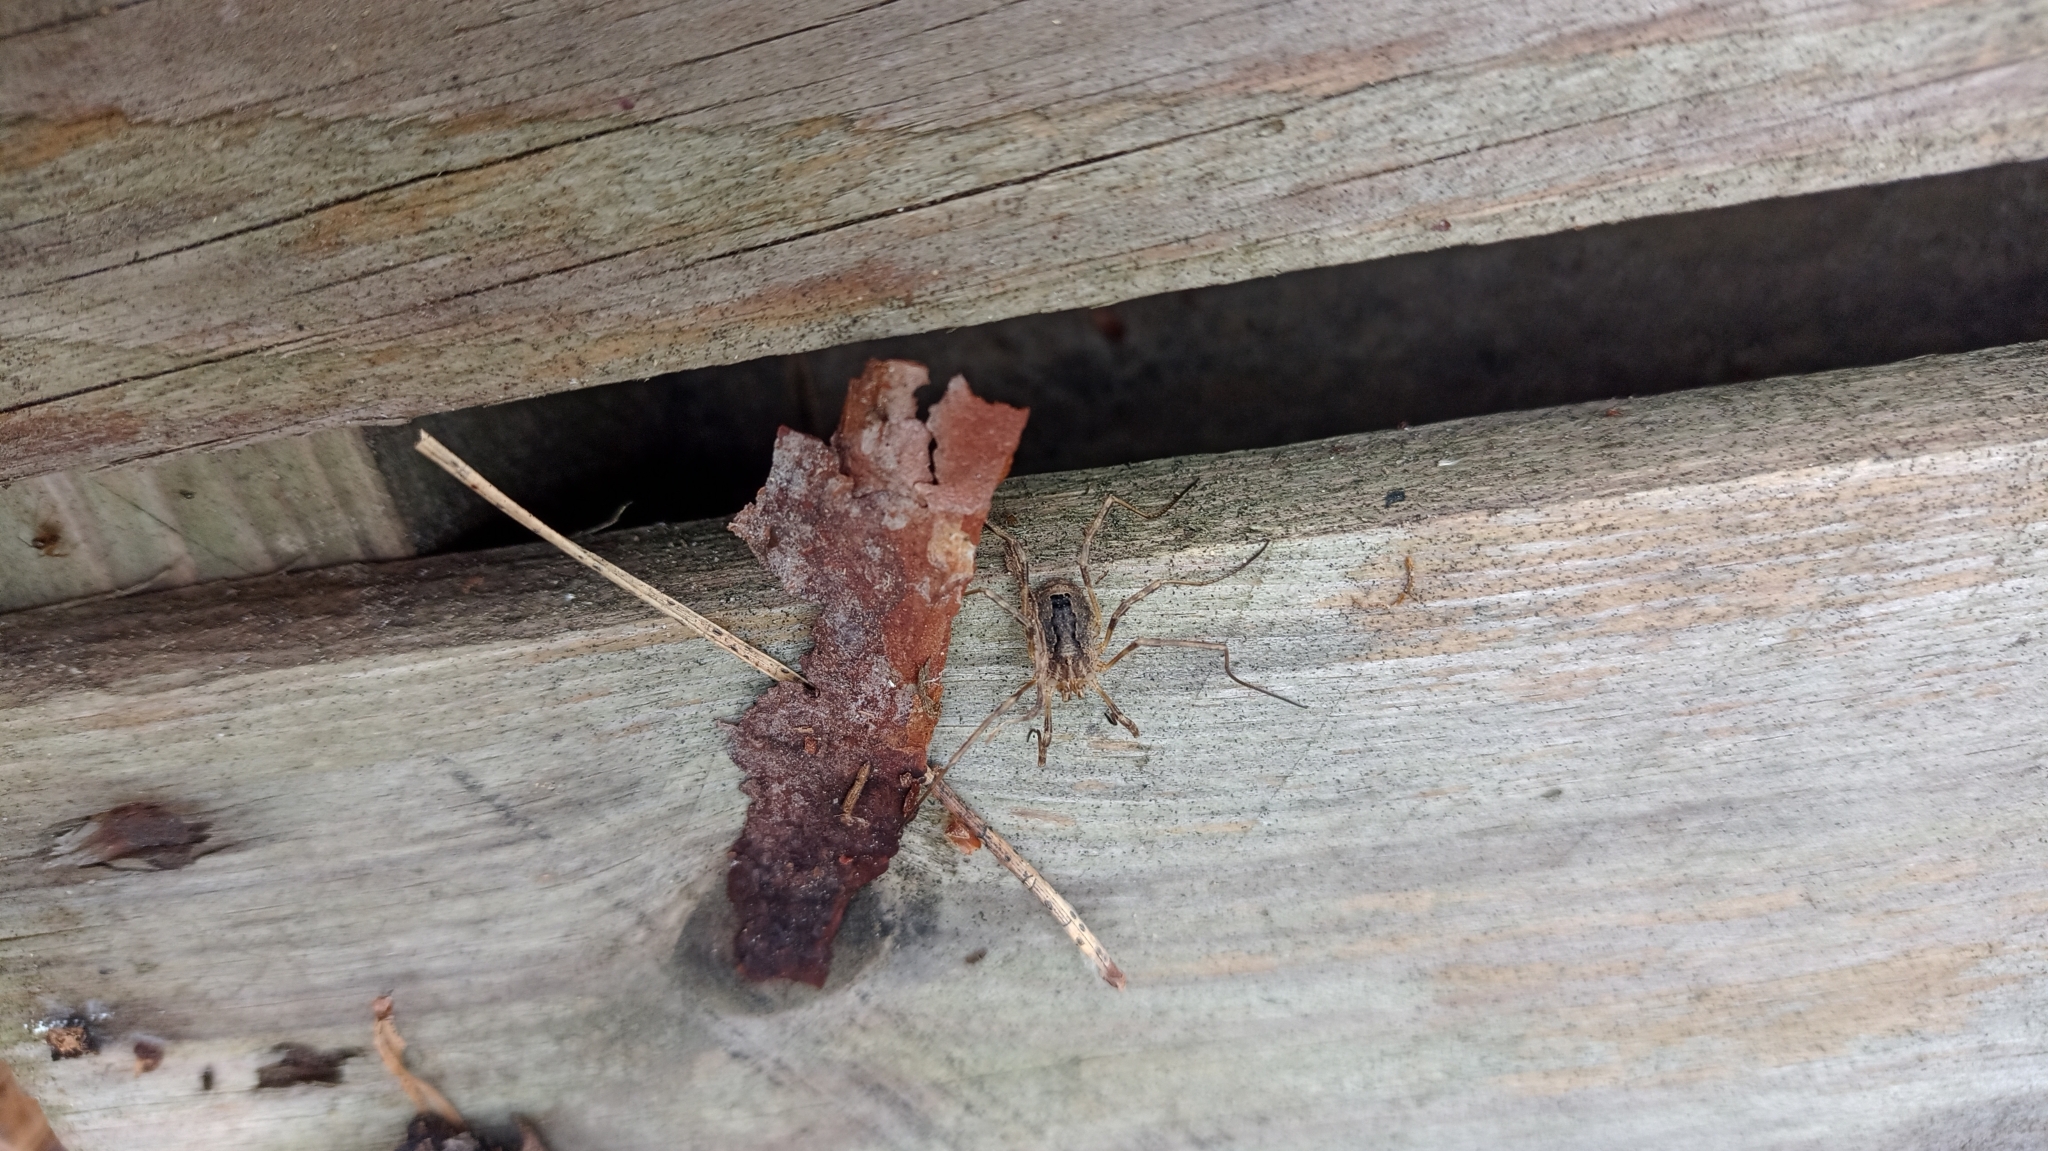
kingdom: Animalia
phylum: Arthropoda
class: Arachnida
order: Opiliones
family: Phalangiidae
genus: Odiellus
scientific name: Odiellus spinosus
